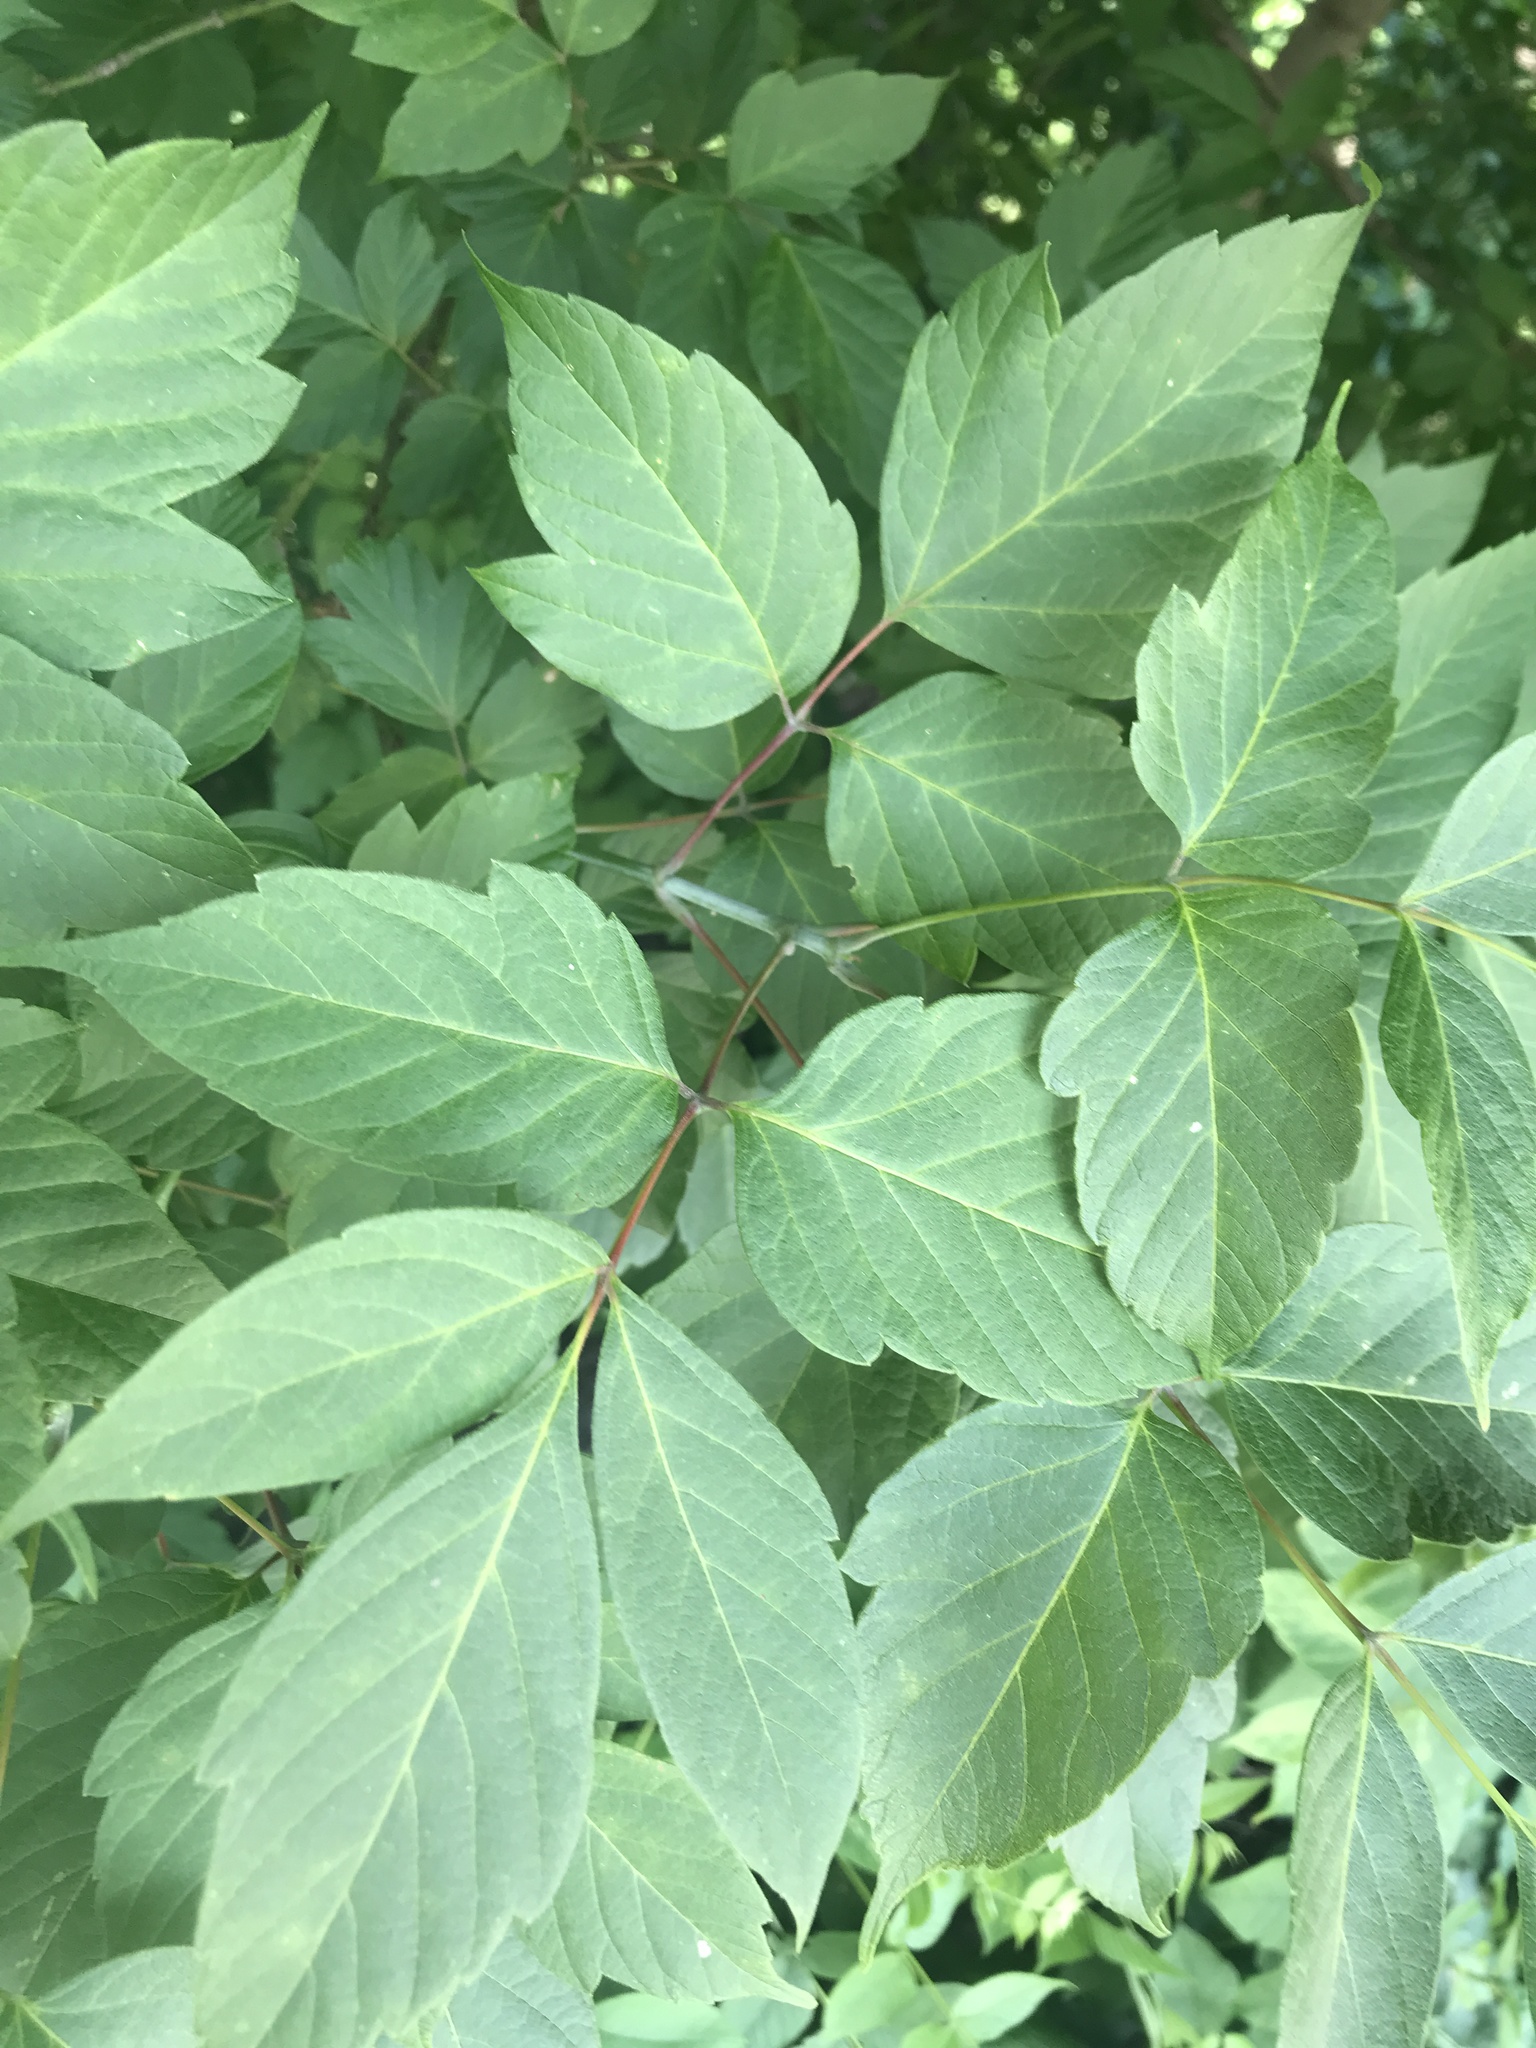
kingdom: Plantae
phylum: Tracheophyta
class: Magnoliopsida
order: Sapindales
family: Sapindaceae
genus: Acer
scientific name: Acer negundo
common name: Ashleaf maple
